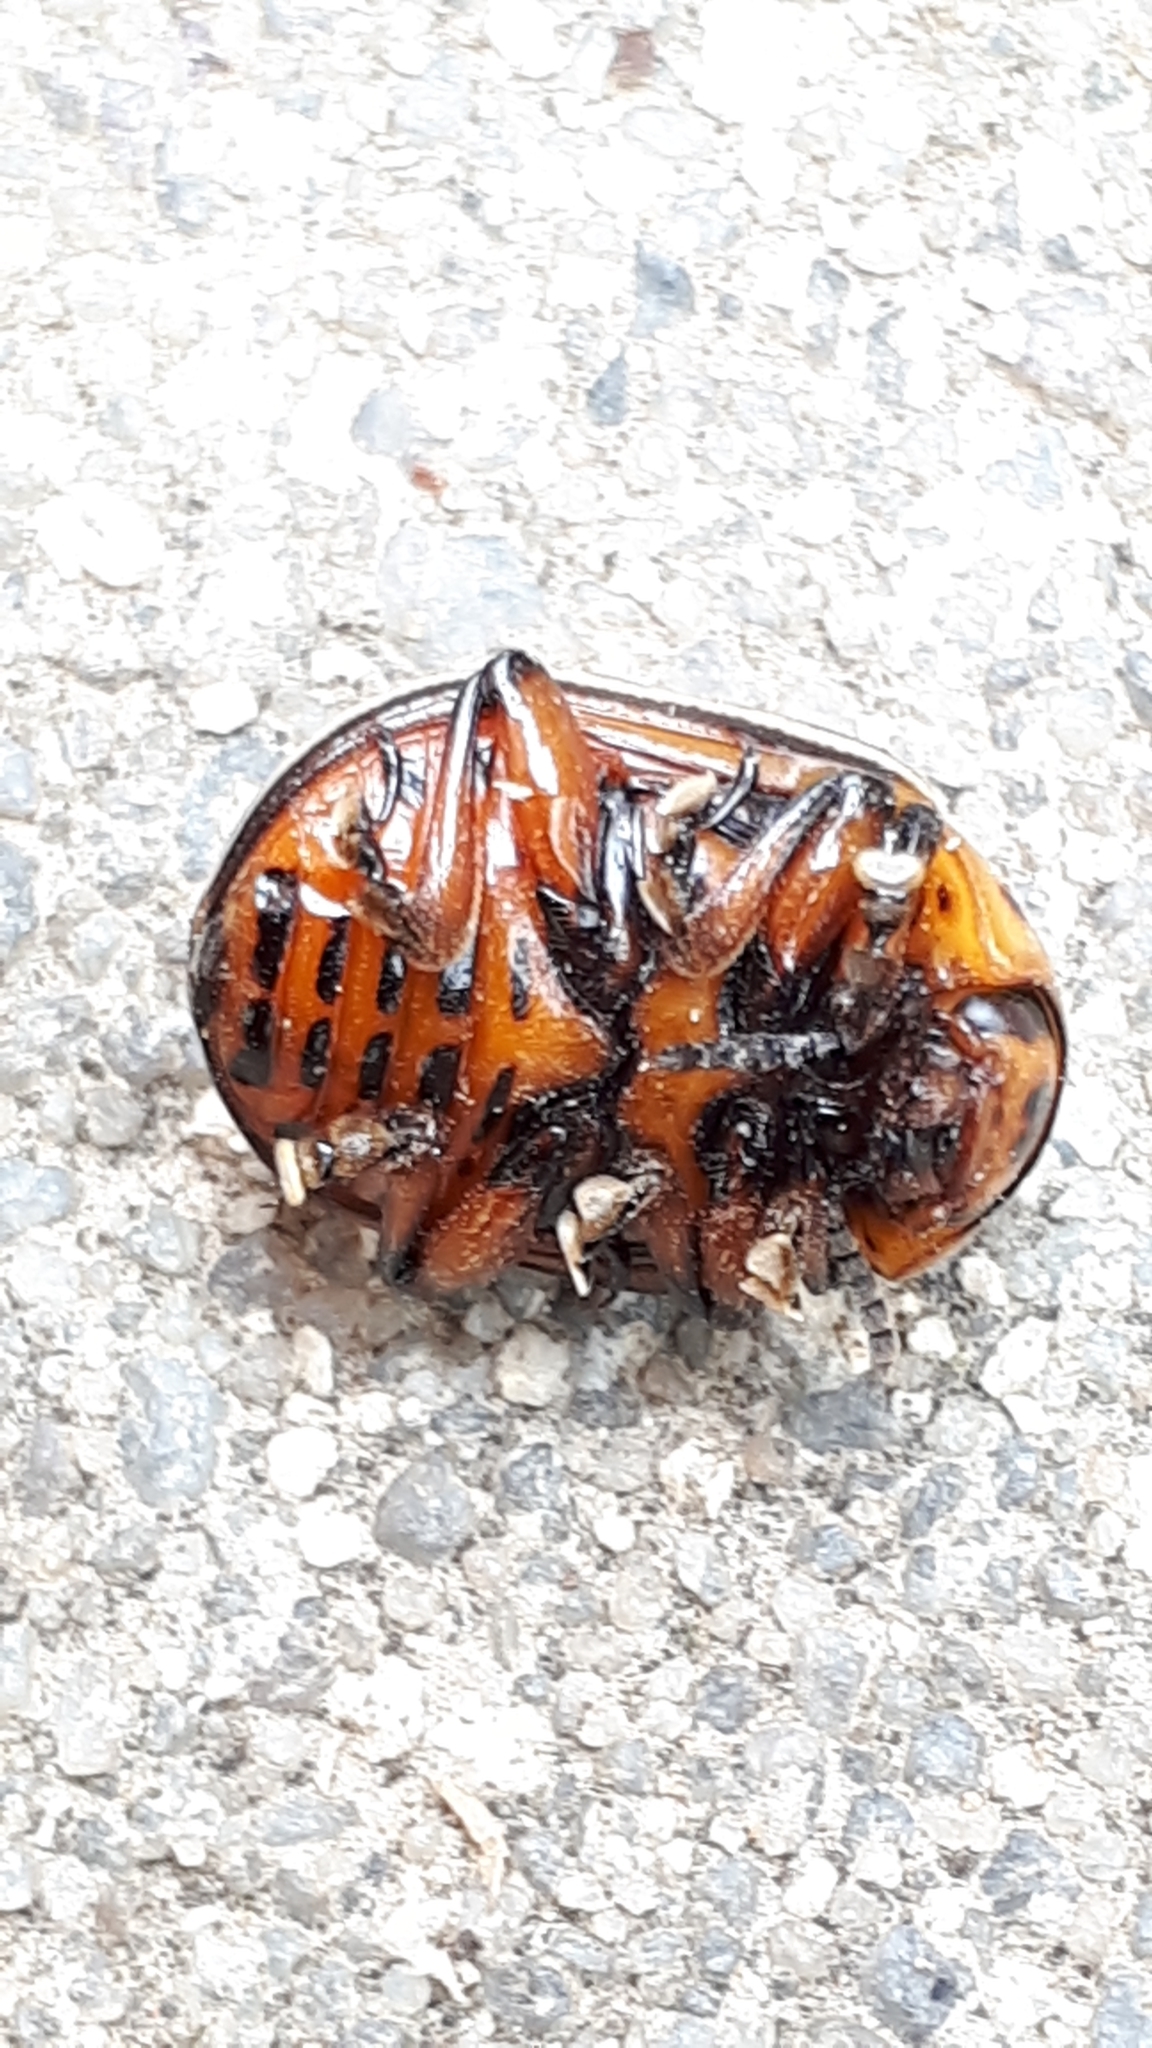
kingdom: Animalia
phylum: Arthropoda
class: Insecta
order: Coleoptera
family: Chrysomelidae
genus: Leptinotarsa
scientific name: Leptinotarsa decemlineata
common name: Colorado potato beetle
